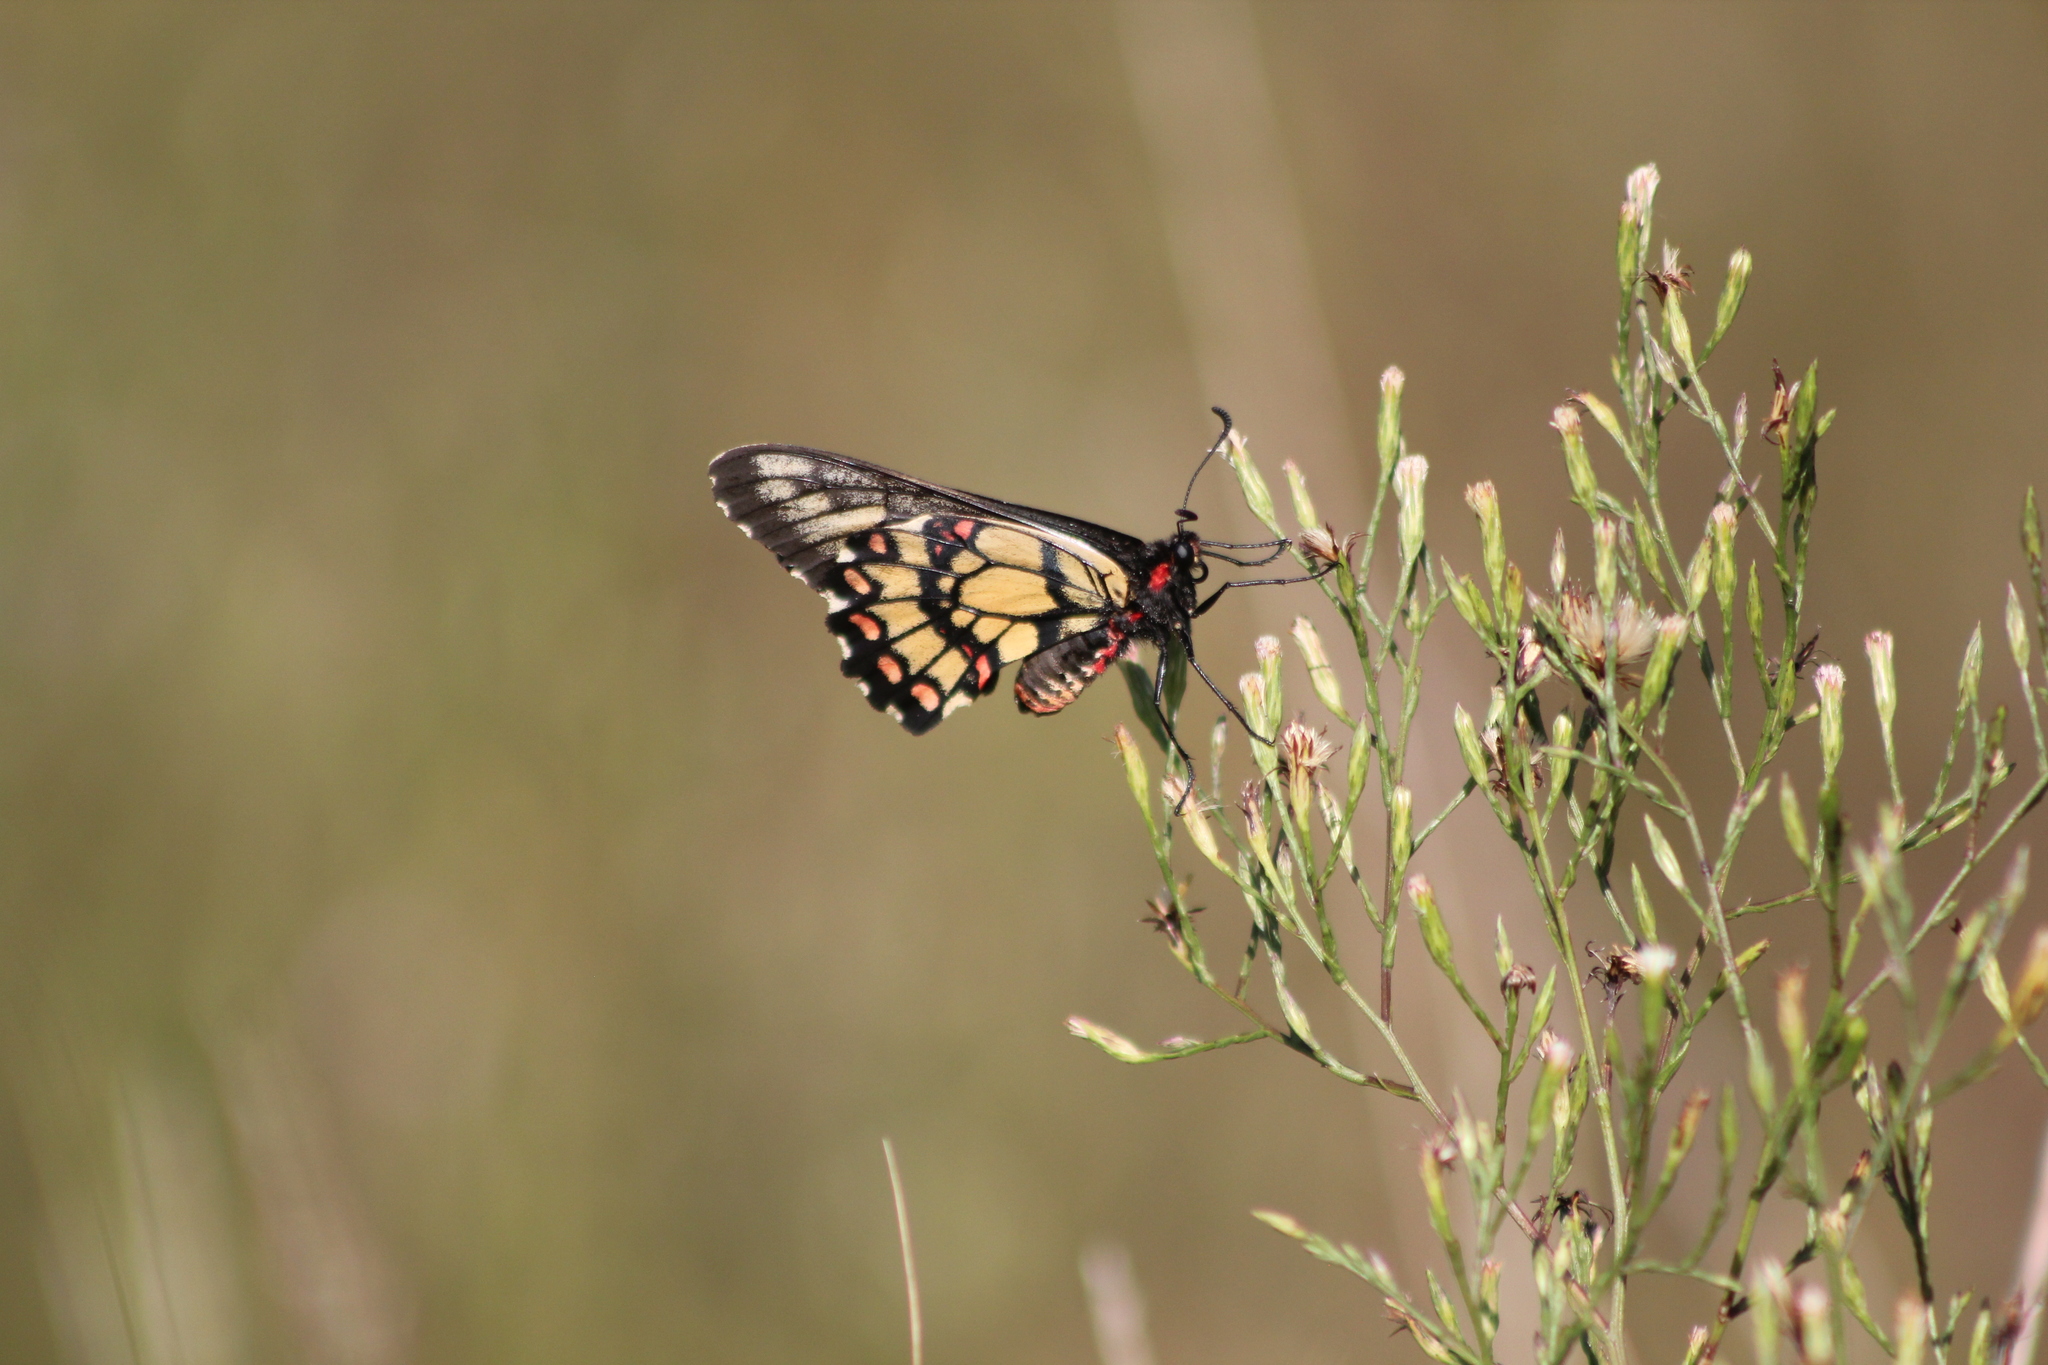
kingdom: Animalia
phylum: Arthropoda
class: Insecta
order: Lepidoptera
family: Papilionidae
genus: Euryades
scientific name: Euryades corethrus
